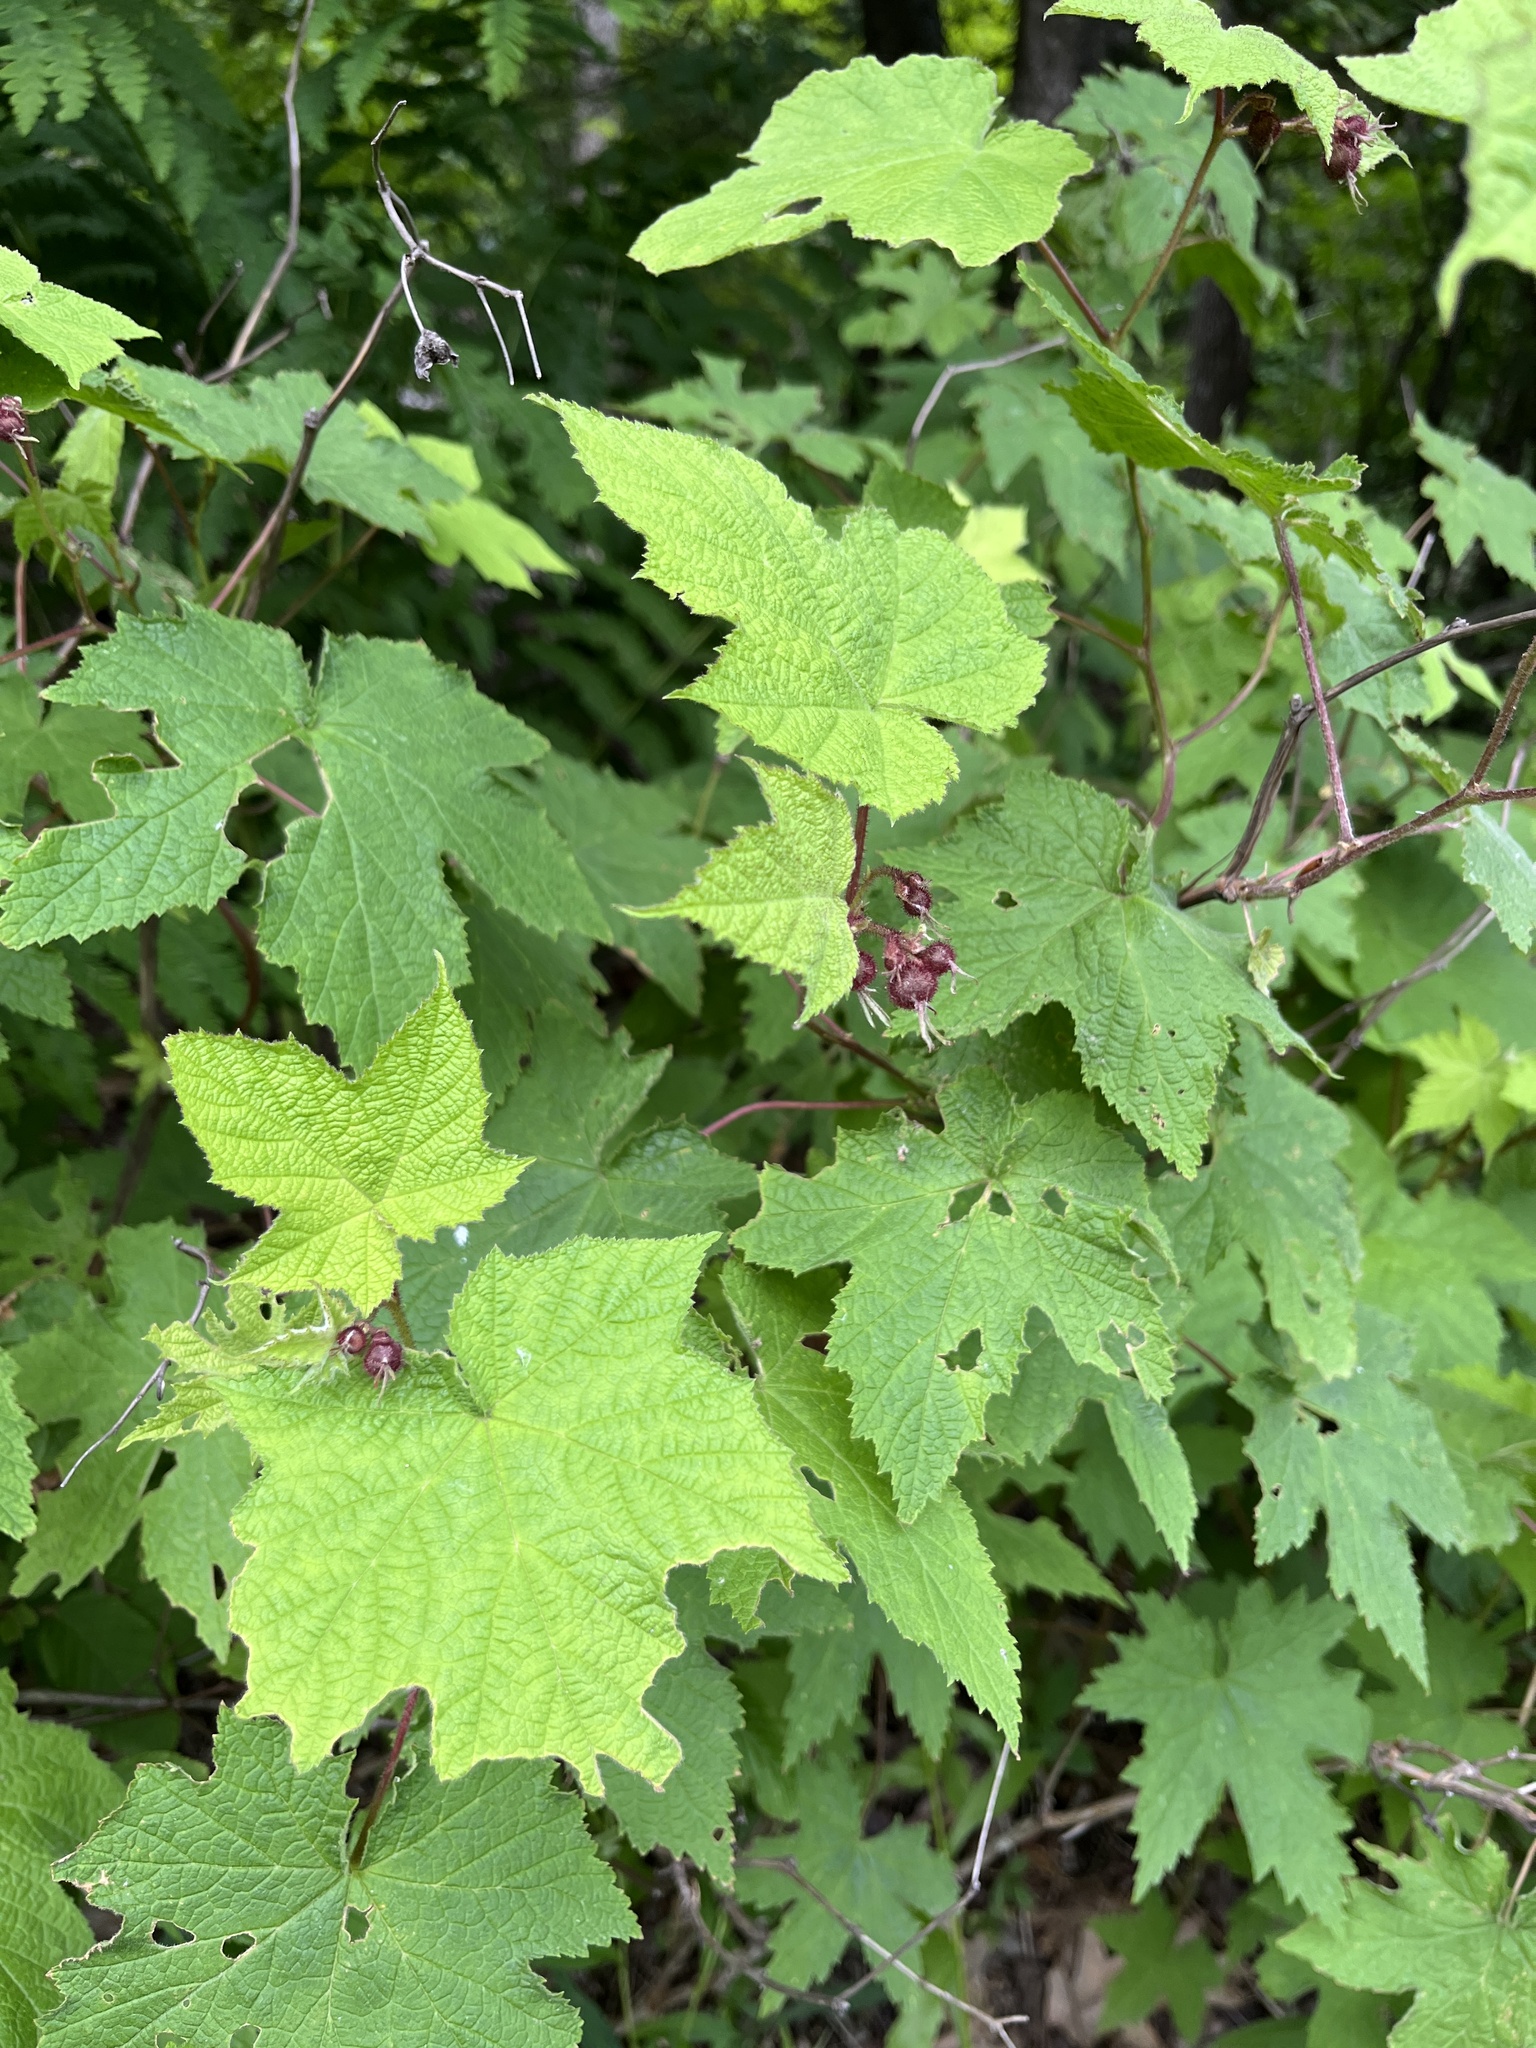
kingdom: Plantae
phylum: Tracheophyta
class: Magnoliopsida
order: Rosales
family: Rosaceae
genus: Rubus
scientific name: Rubus odoratus
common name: Purple-flowered raspberry
